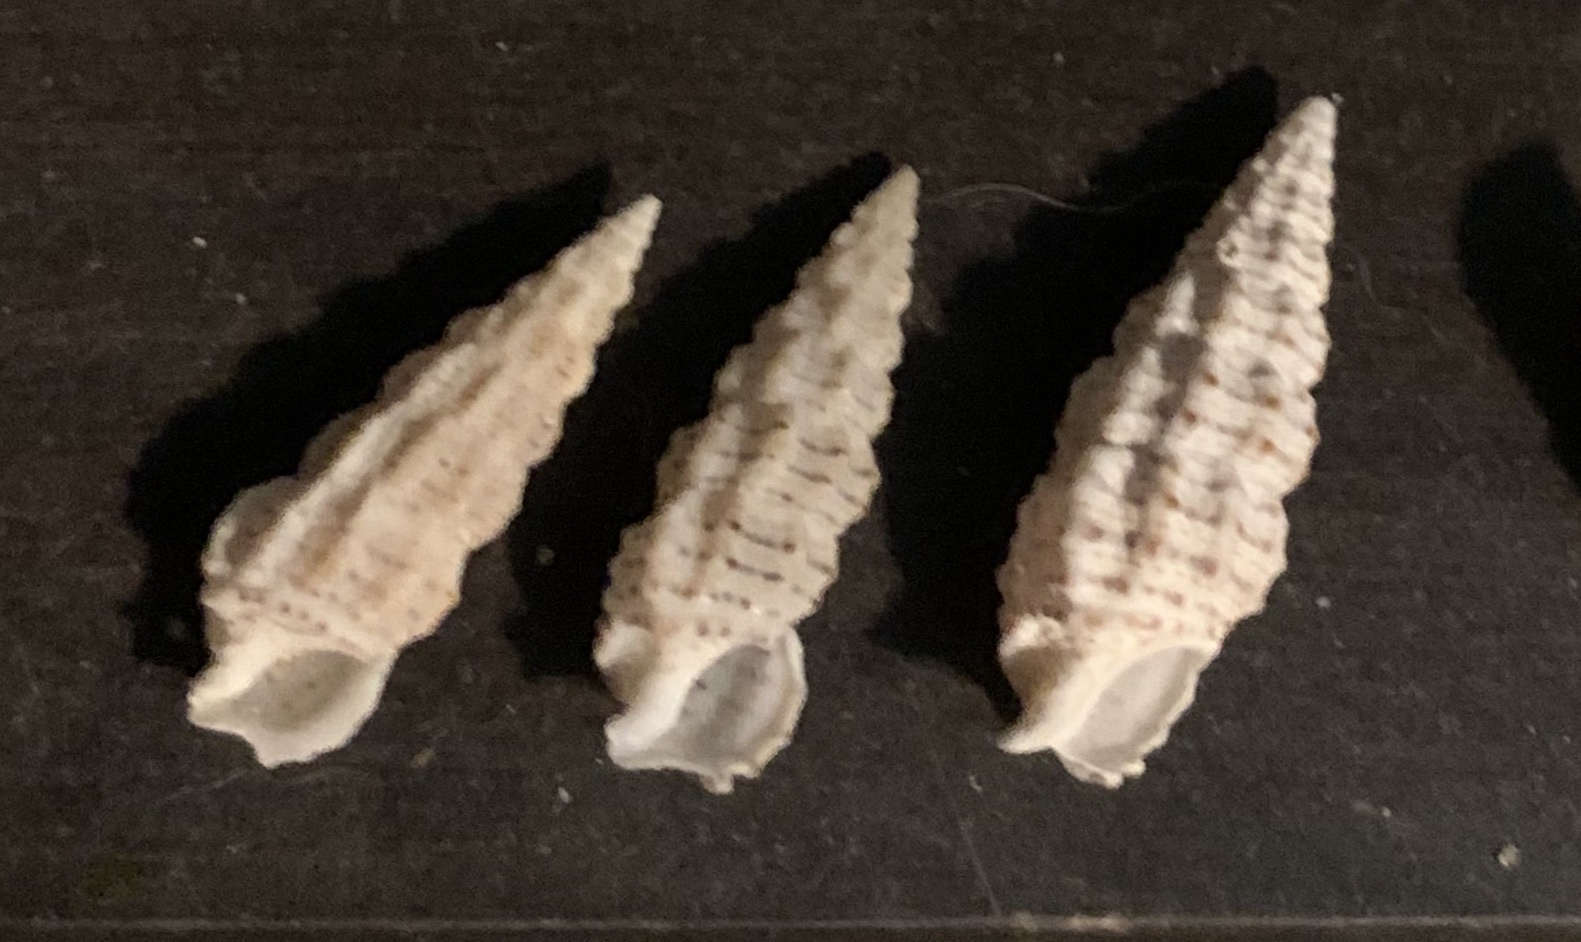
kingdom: Animalia
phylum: Mollusca
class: Gastropoda
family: Cerithiidae
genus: Cerithium
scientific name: Cerithium muscarum
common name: Fly-specked cerith
